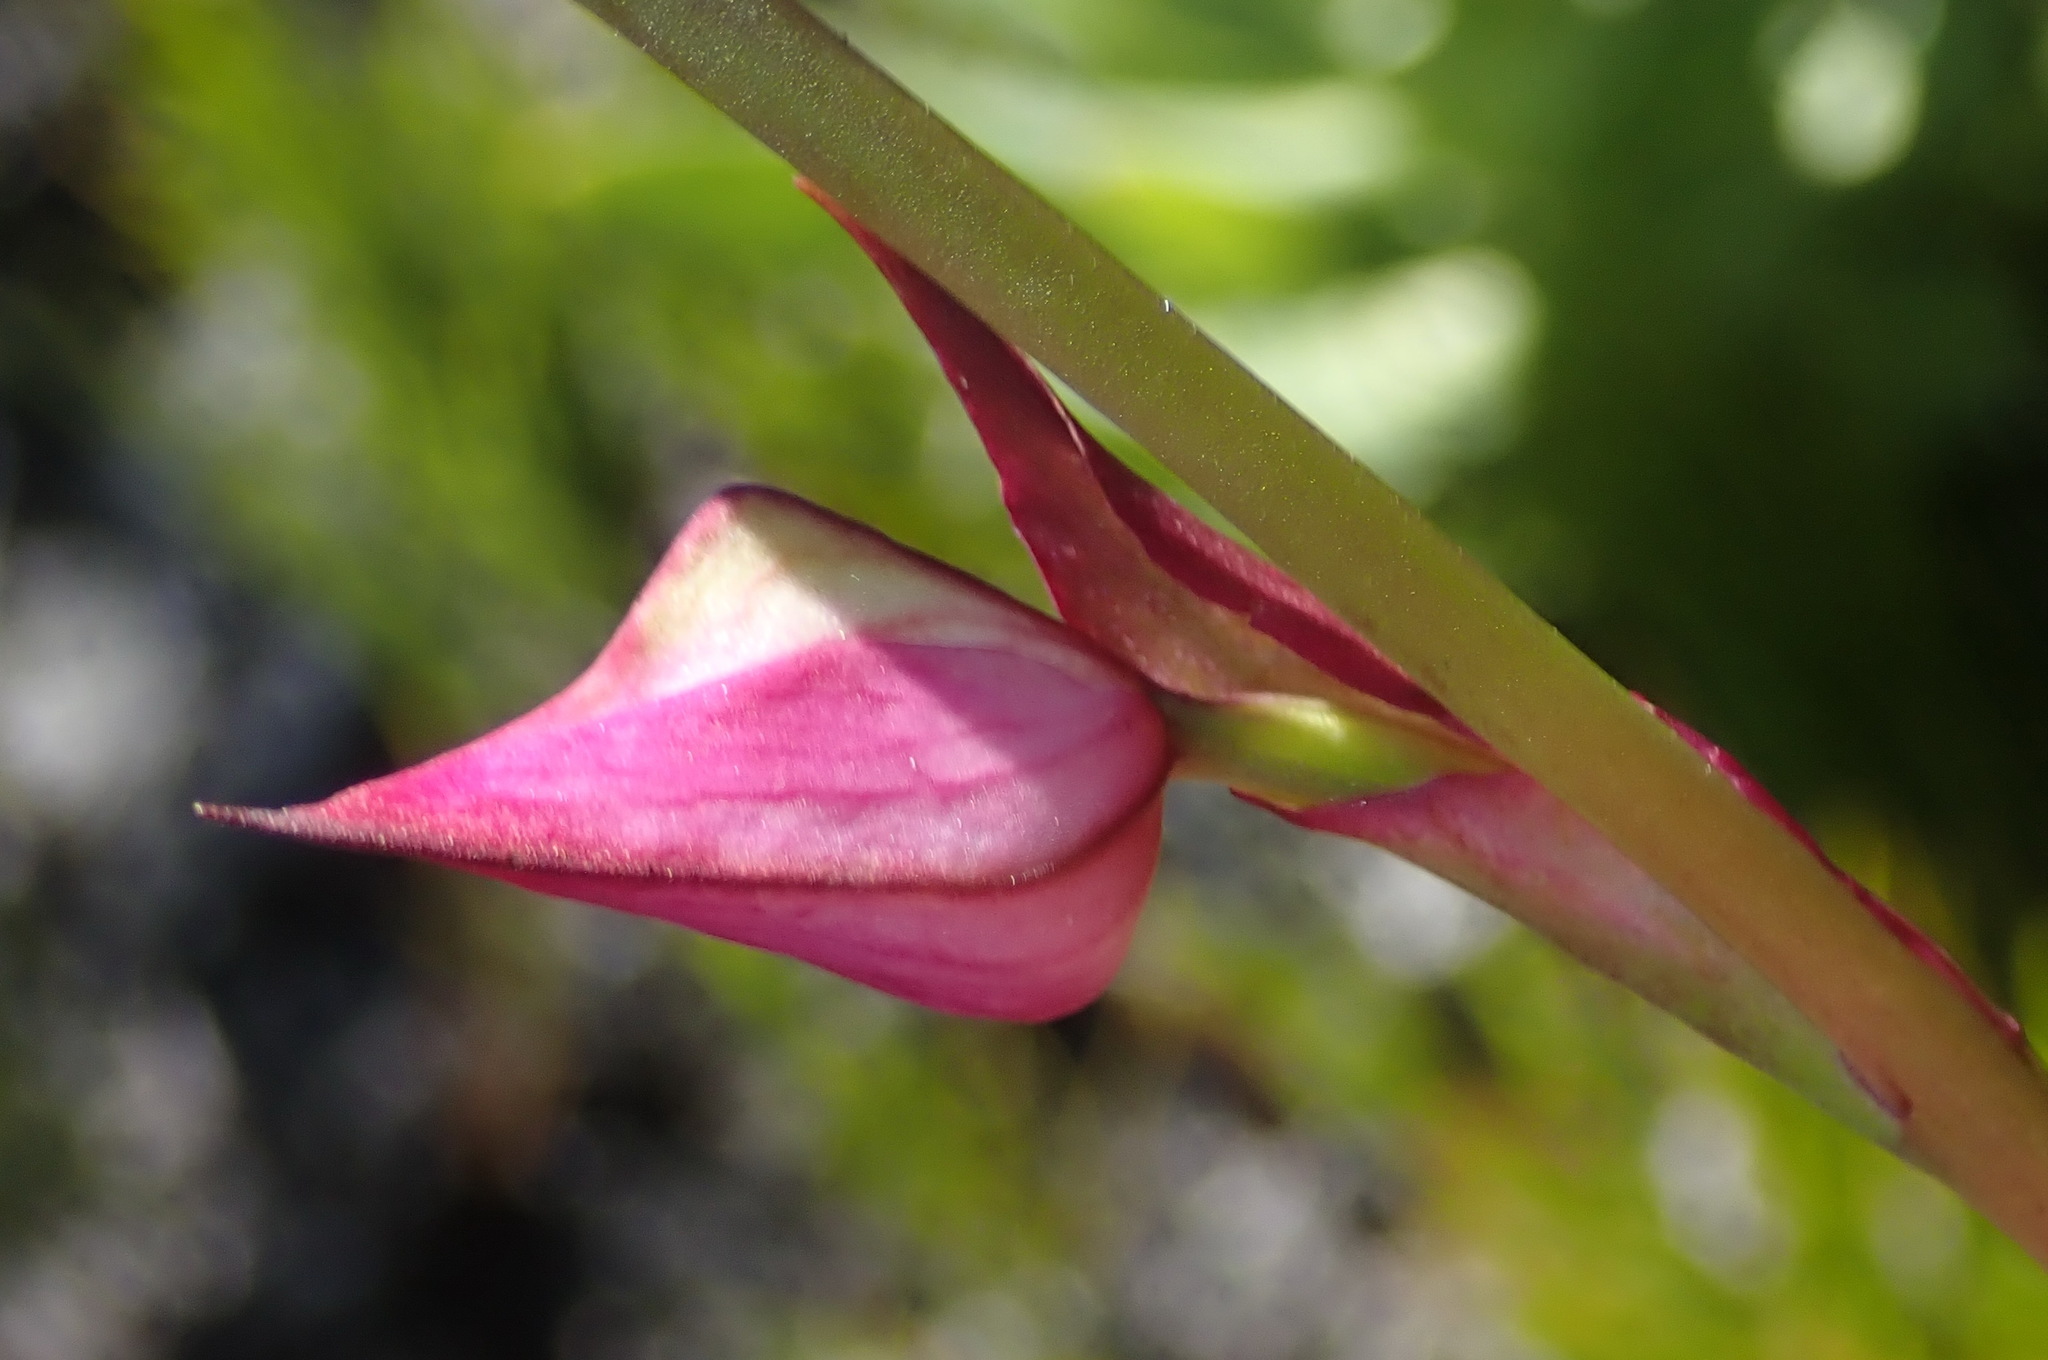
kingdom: Plantae
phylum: Tracheophyta
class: Liliopsida
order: Asparagales
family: Orchidaceae
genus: Disa
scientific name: Disa racemosa
